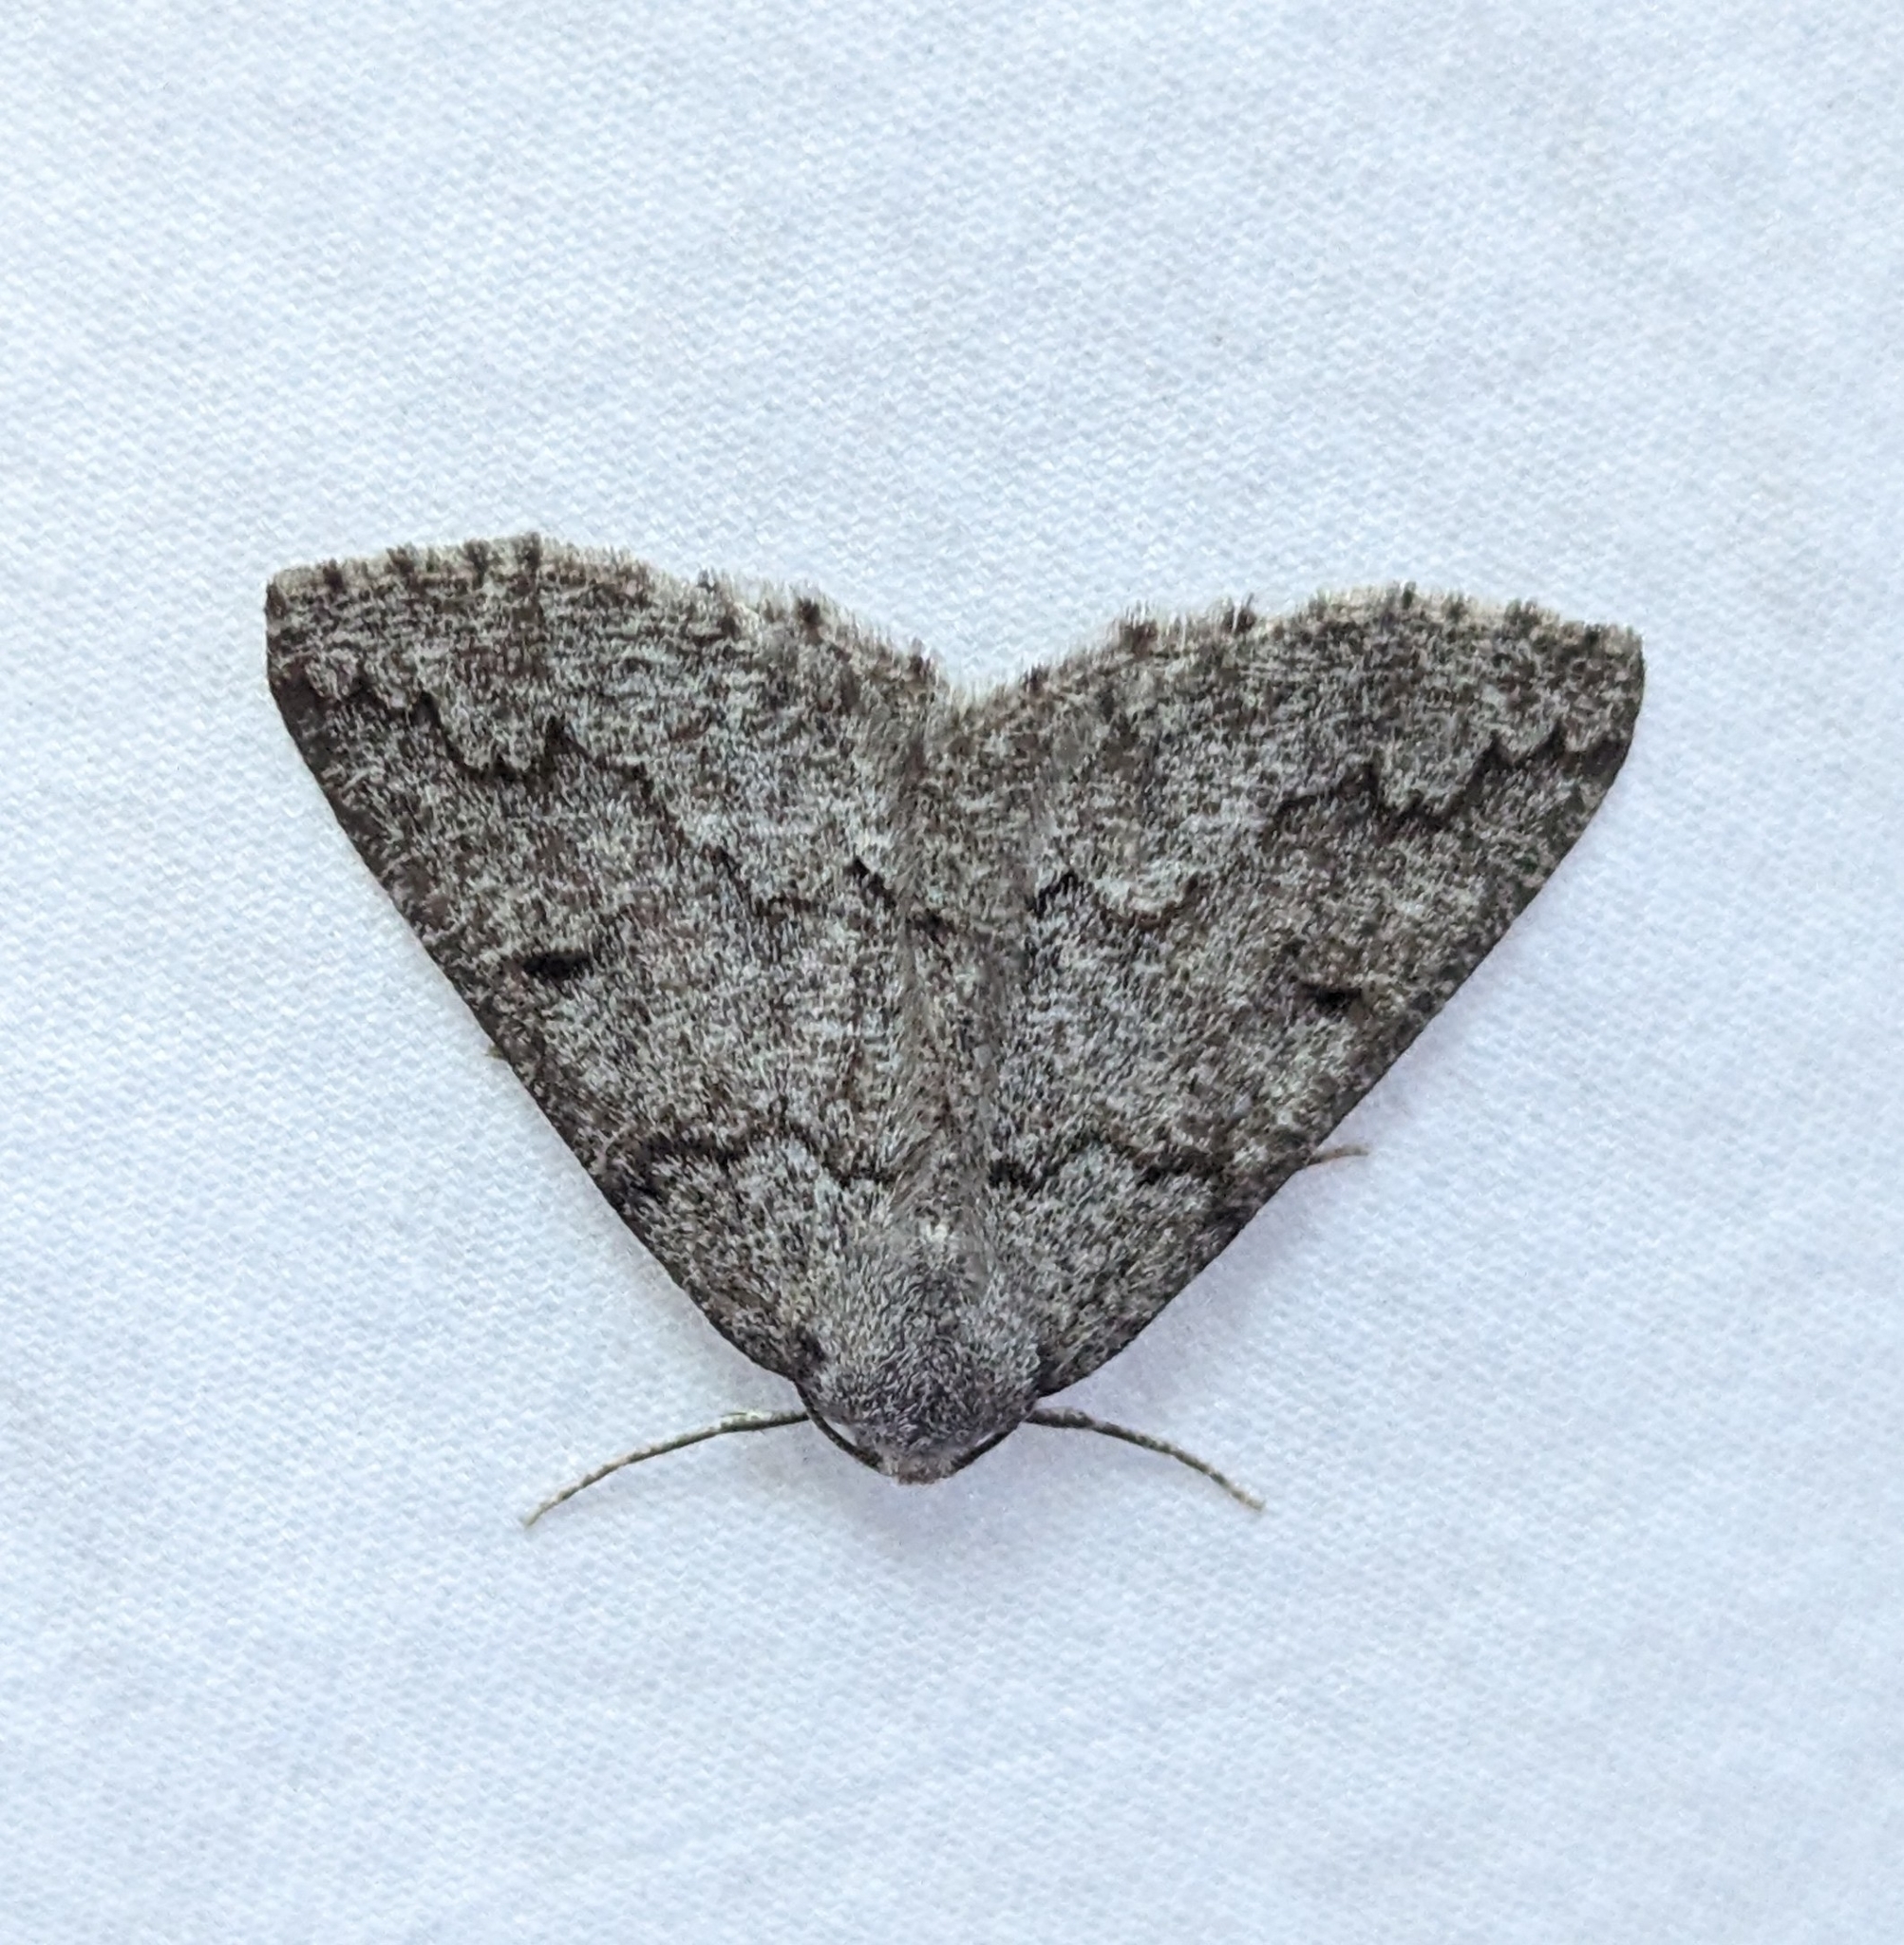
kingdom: Animalia
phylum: Arthropoda
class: Insecta
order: Lepidoptera
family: Geometridae
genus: Sabulodes
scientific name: Sabulodes
